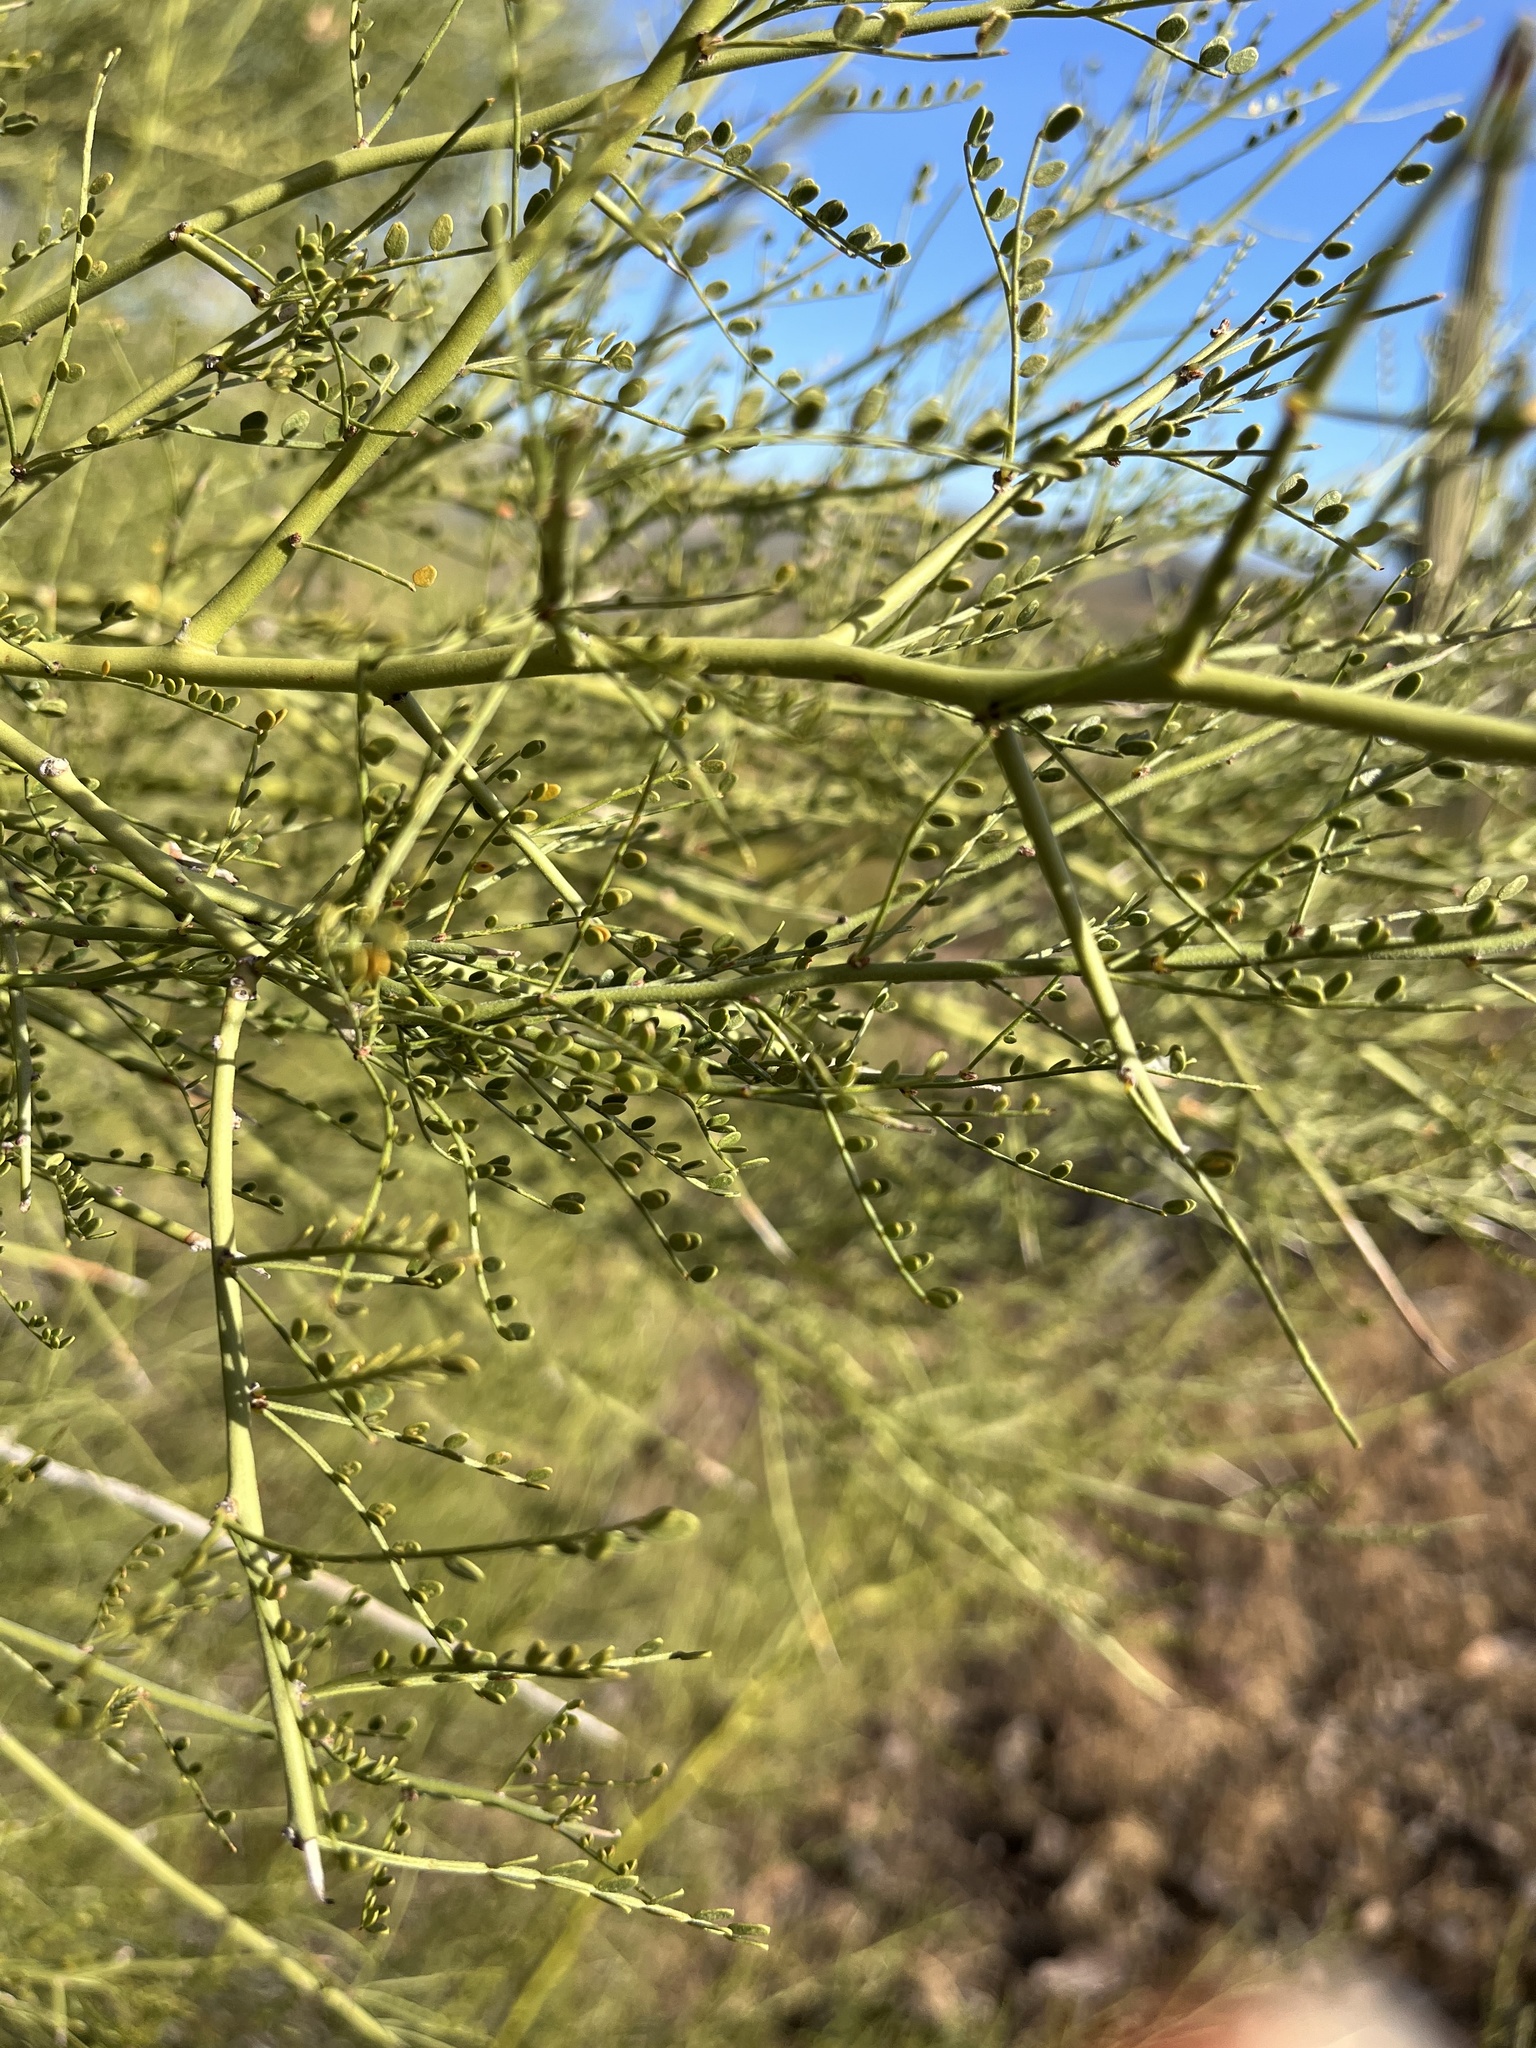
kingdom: Plantae
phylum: Tracheophyta
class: Magnoliopsida
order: Fabales
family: Fabaceae
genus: Parkinsonia
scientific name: Parkinsonia microphylla
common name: Yellow paloverde
